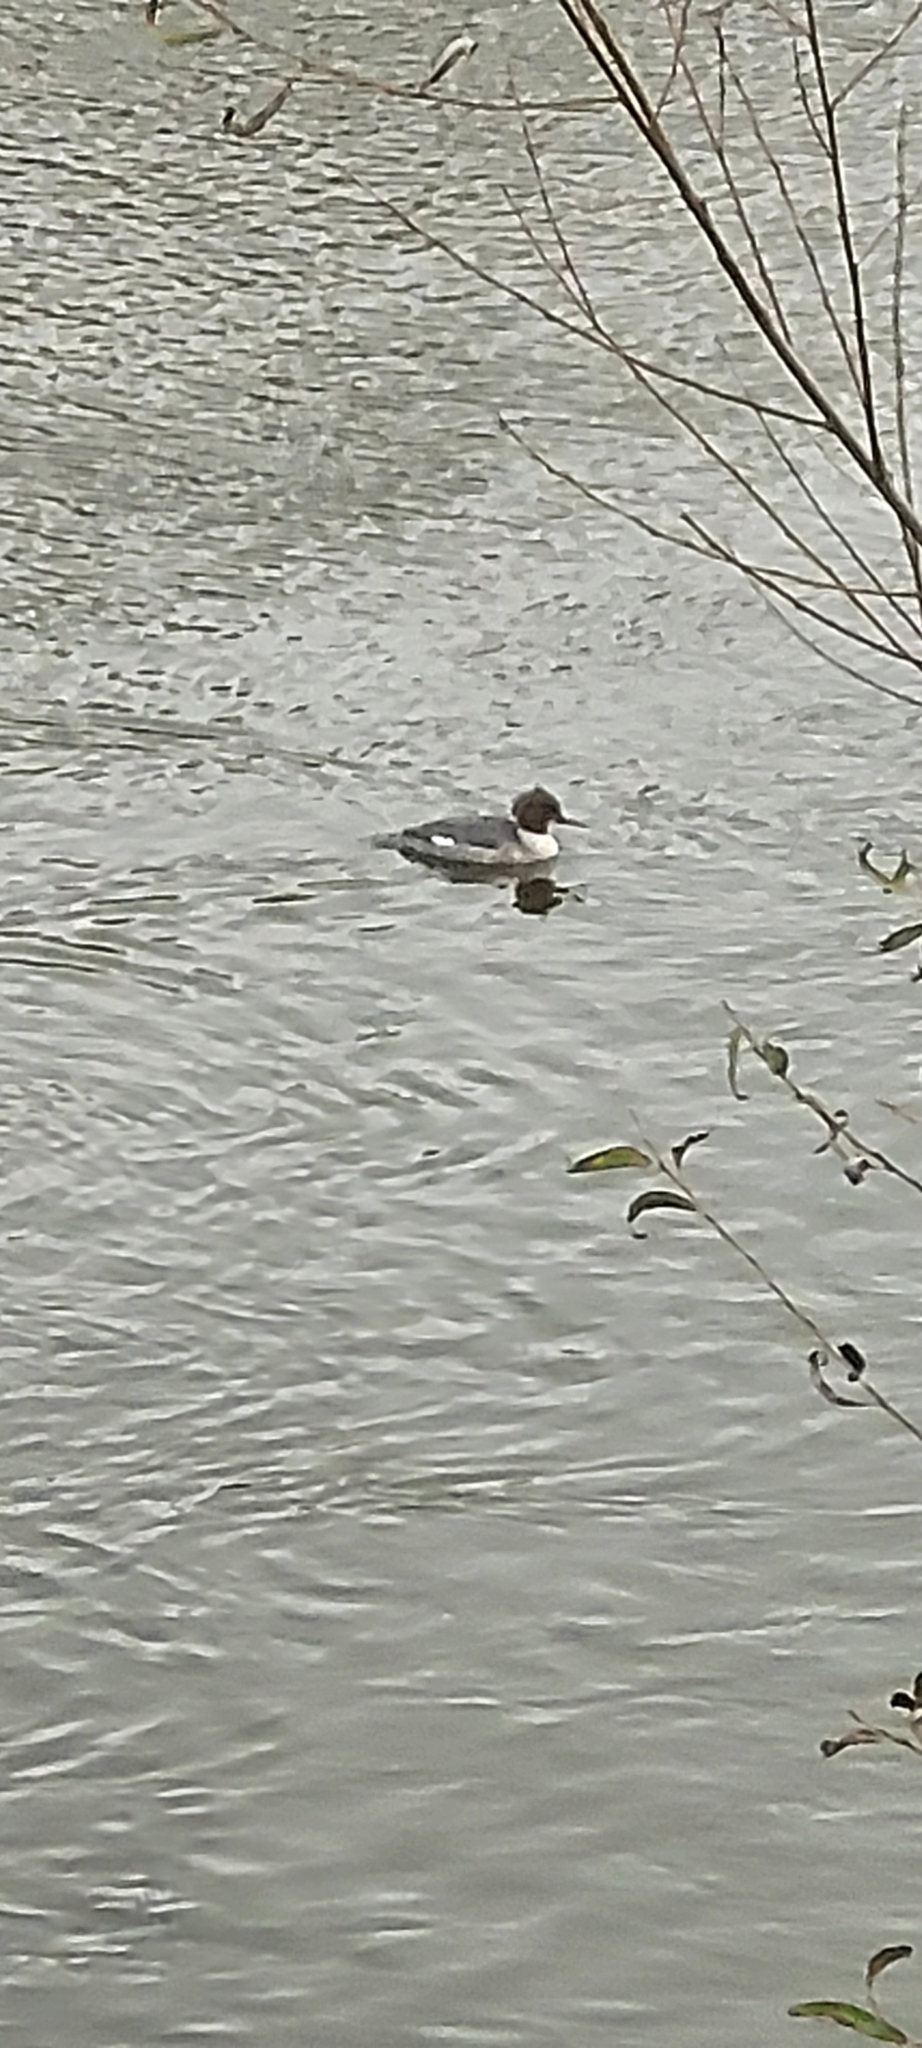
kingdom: Animalia
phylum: Chordata
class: Aves
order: Anseriformes
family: Anatidae
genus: Mergus
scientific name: Mergus merganser
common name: Common merganser
